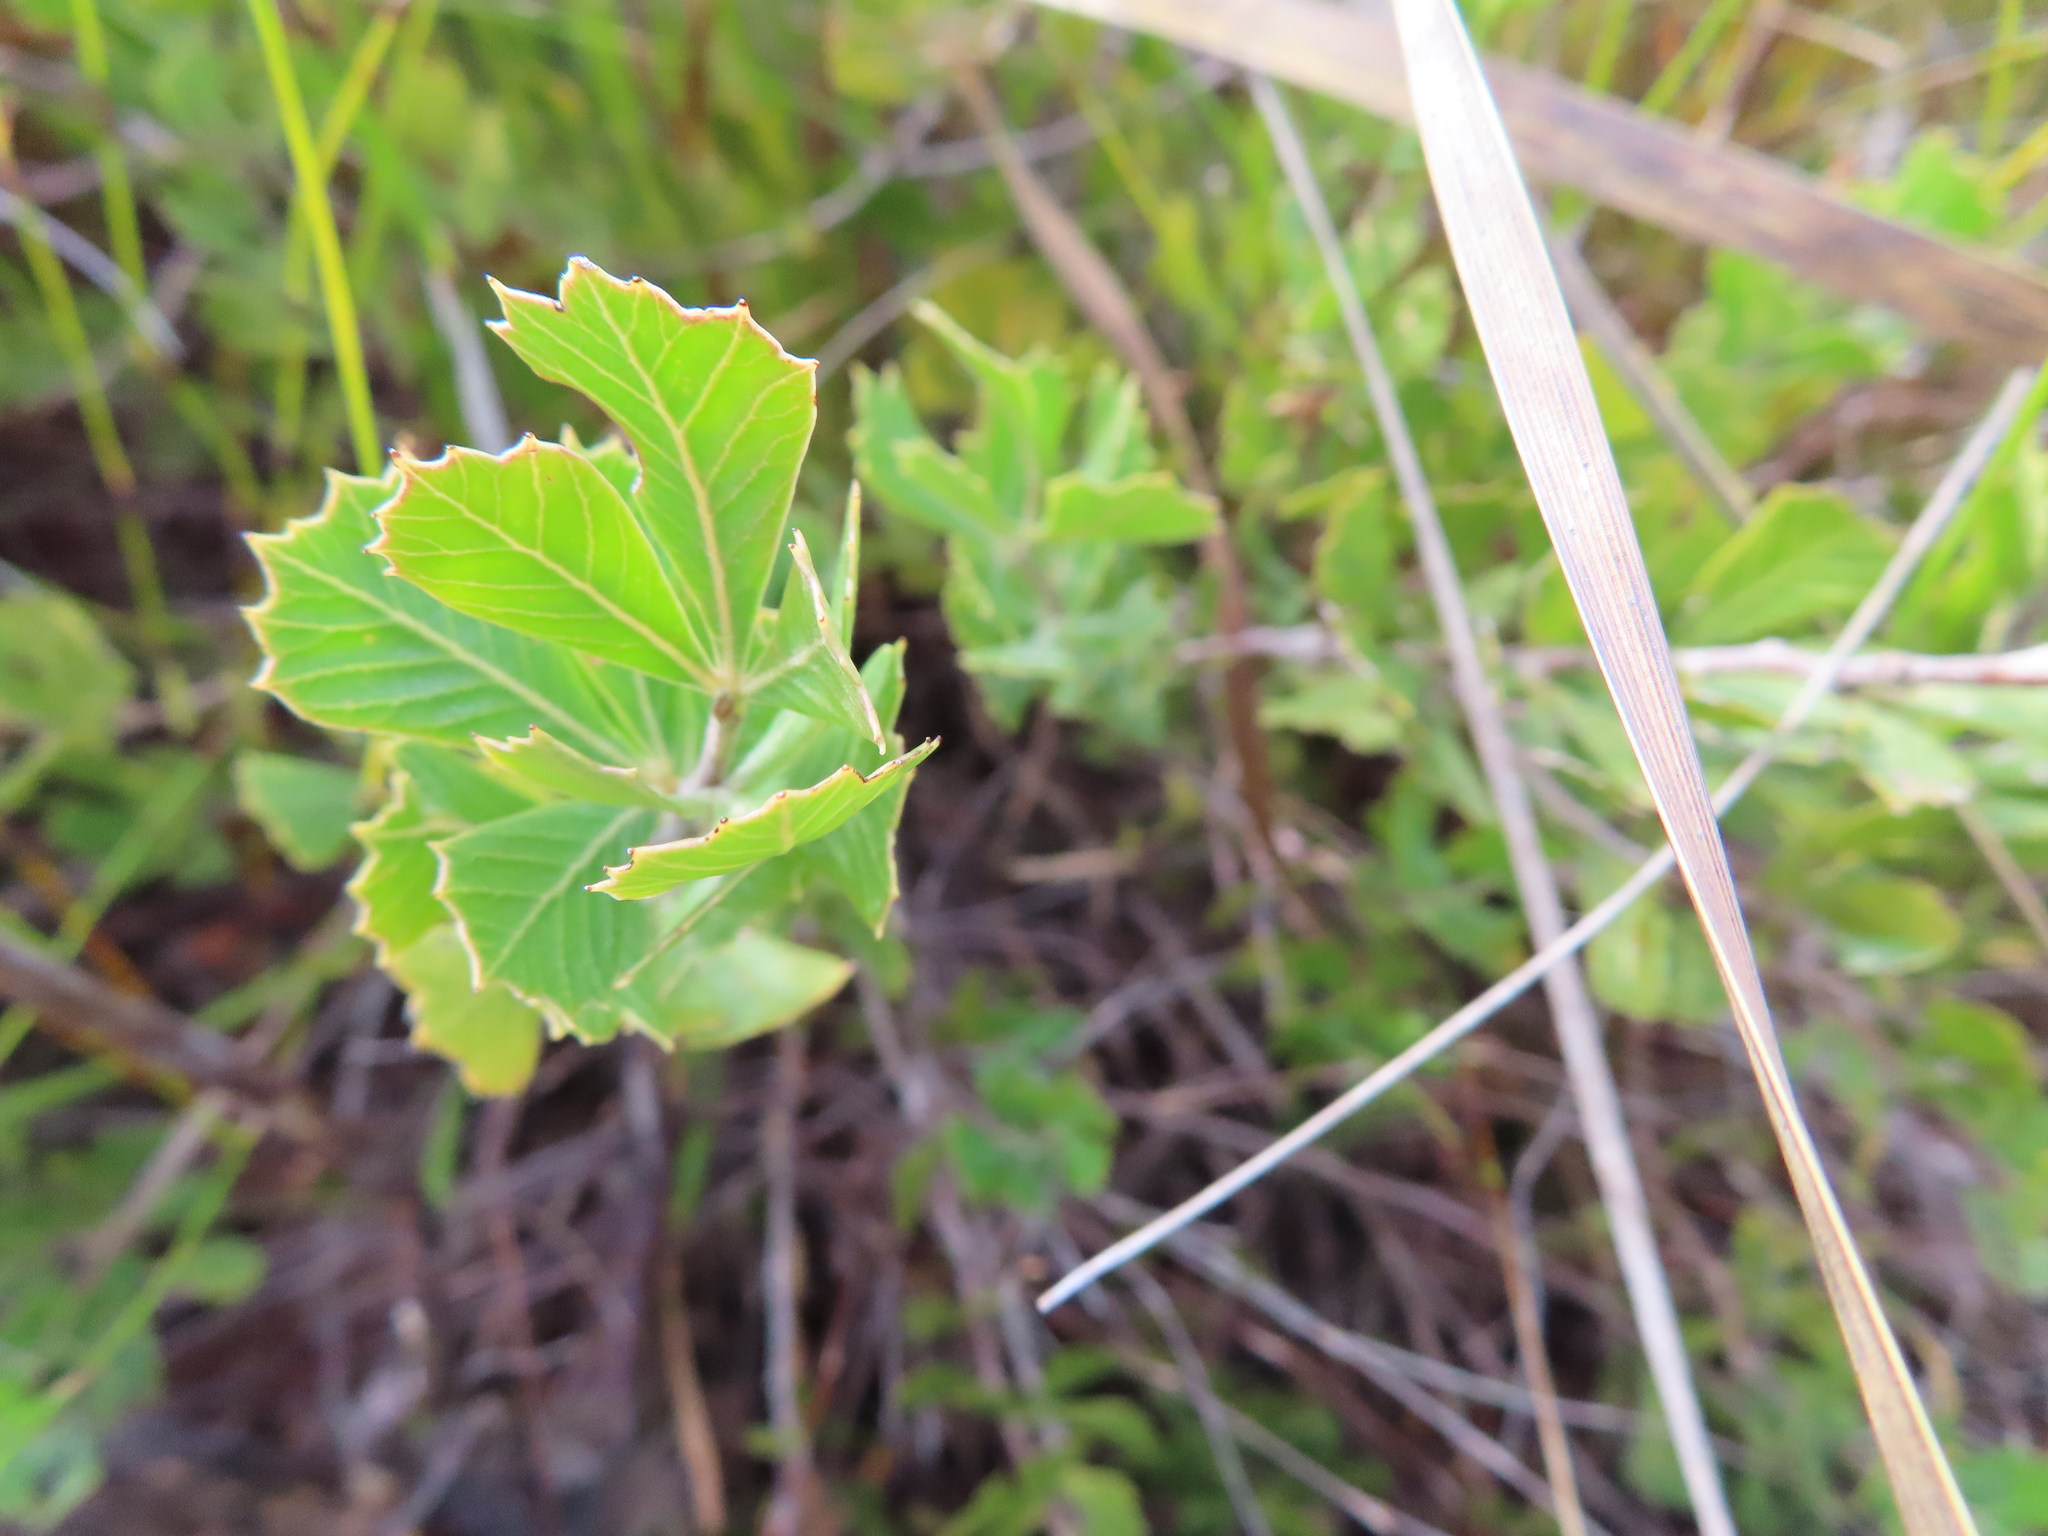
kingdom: Plantae
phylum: Tracheophyta
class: Magnoliopsida
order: Sapindales
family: Anacardiaceae
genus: Searsia
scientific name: Searsia cuneifolia
